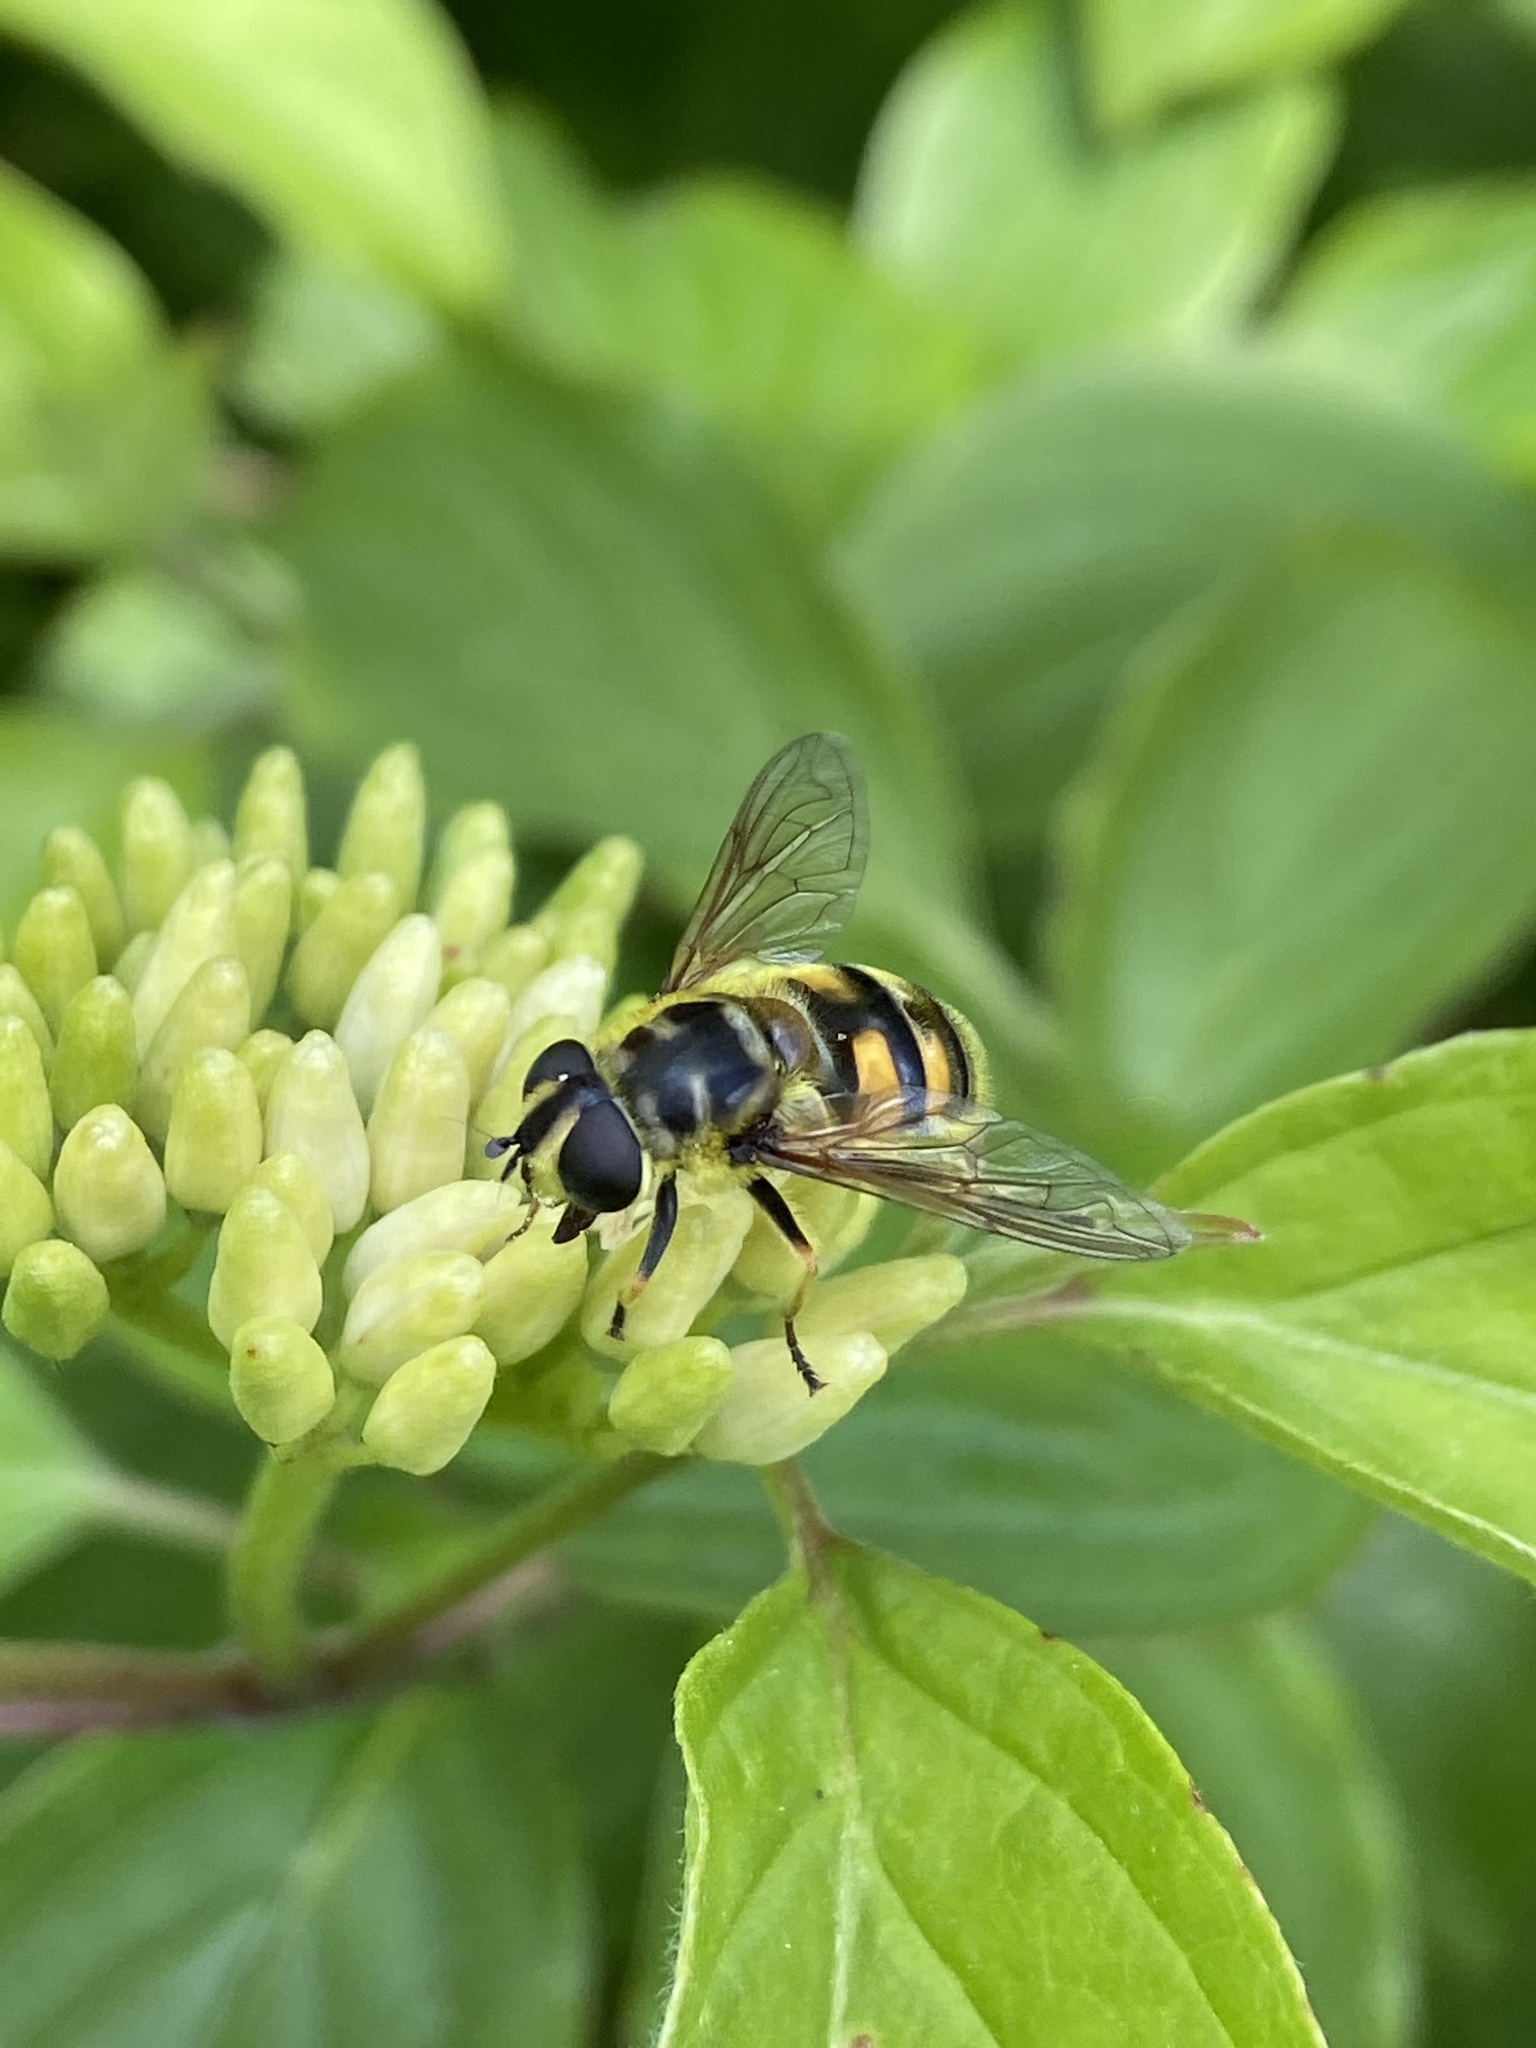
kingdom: Animalia
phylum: Arthropoda
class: Insecta
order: Diptera
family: Syrphidae
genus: Myathropa
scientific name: Myathropa florea
